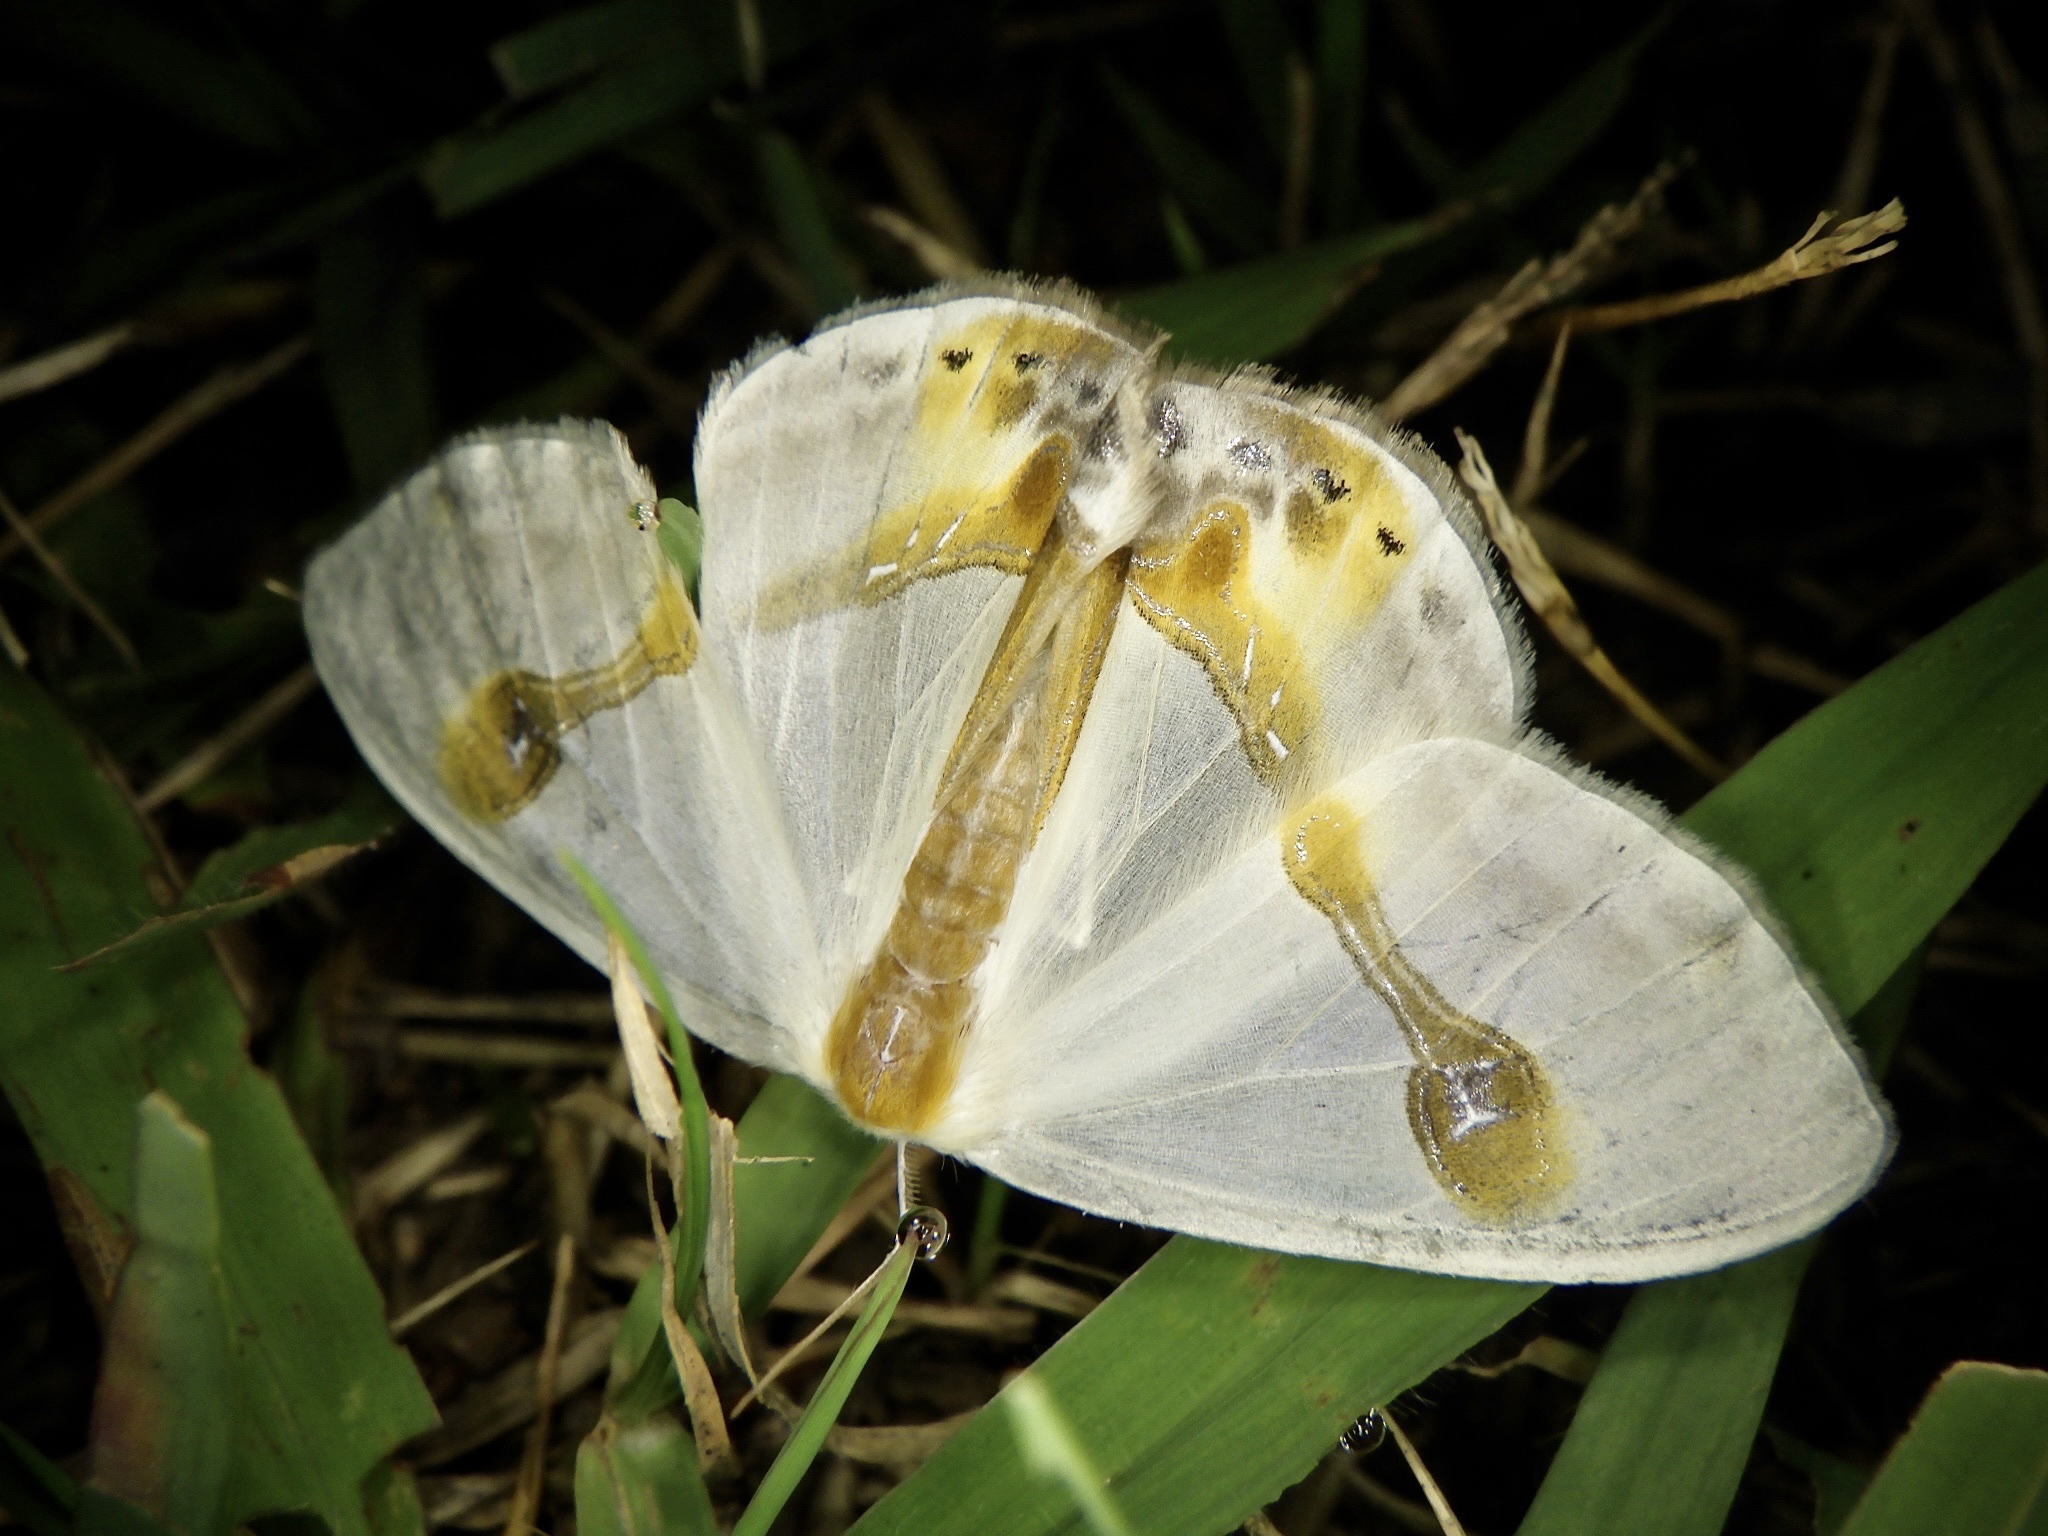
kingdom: Animalia
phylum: Arthropoda
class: Insecta
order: Lepidoptera
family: Drepanidae
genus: Macrocilix
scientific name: Macrocilix mysticata
